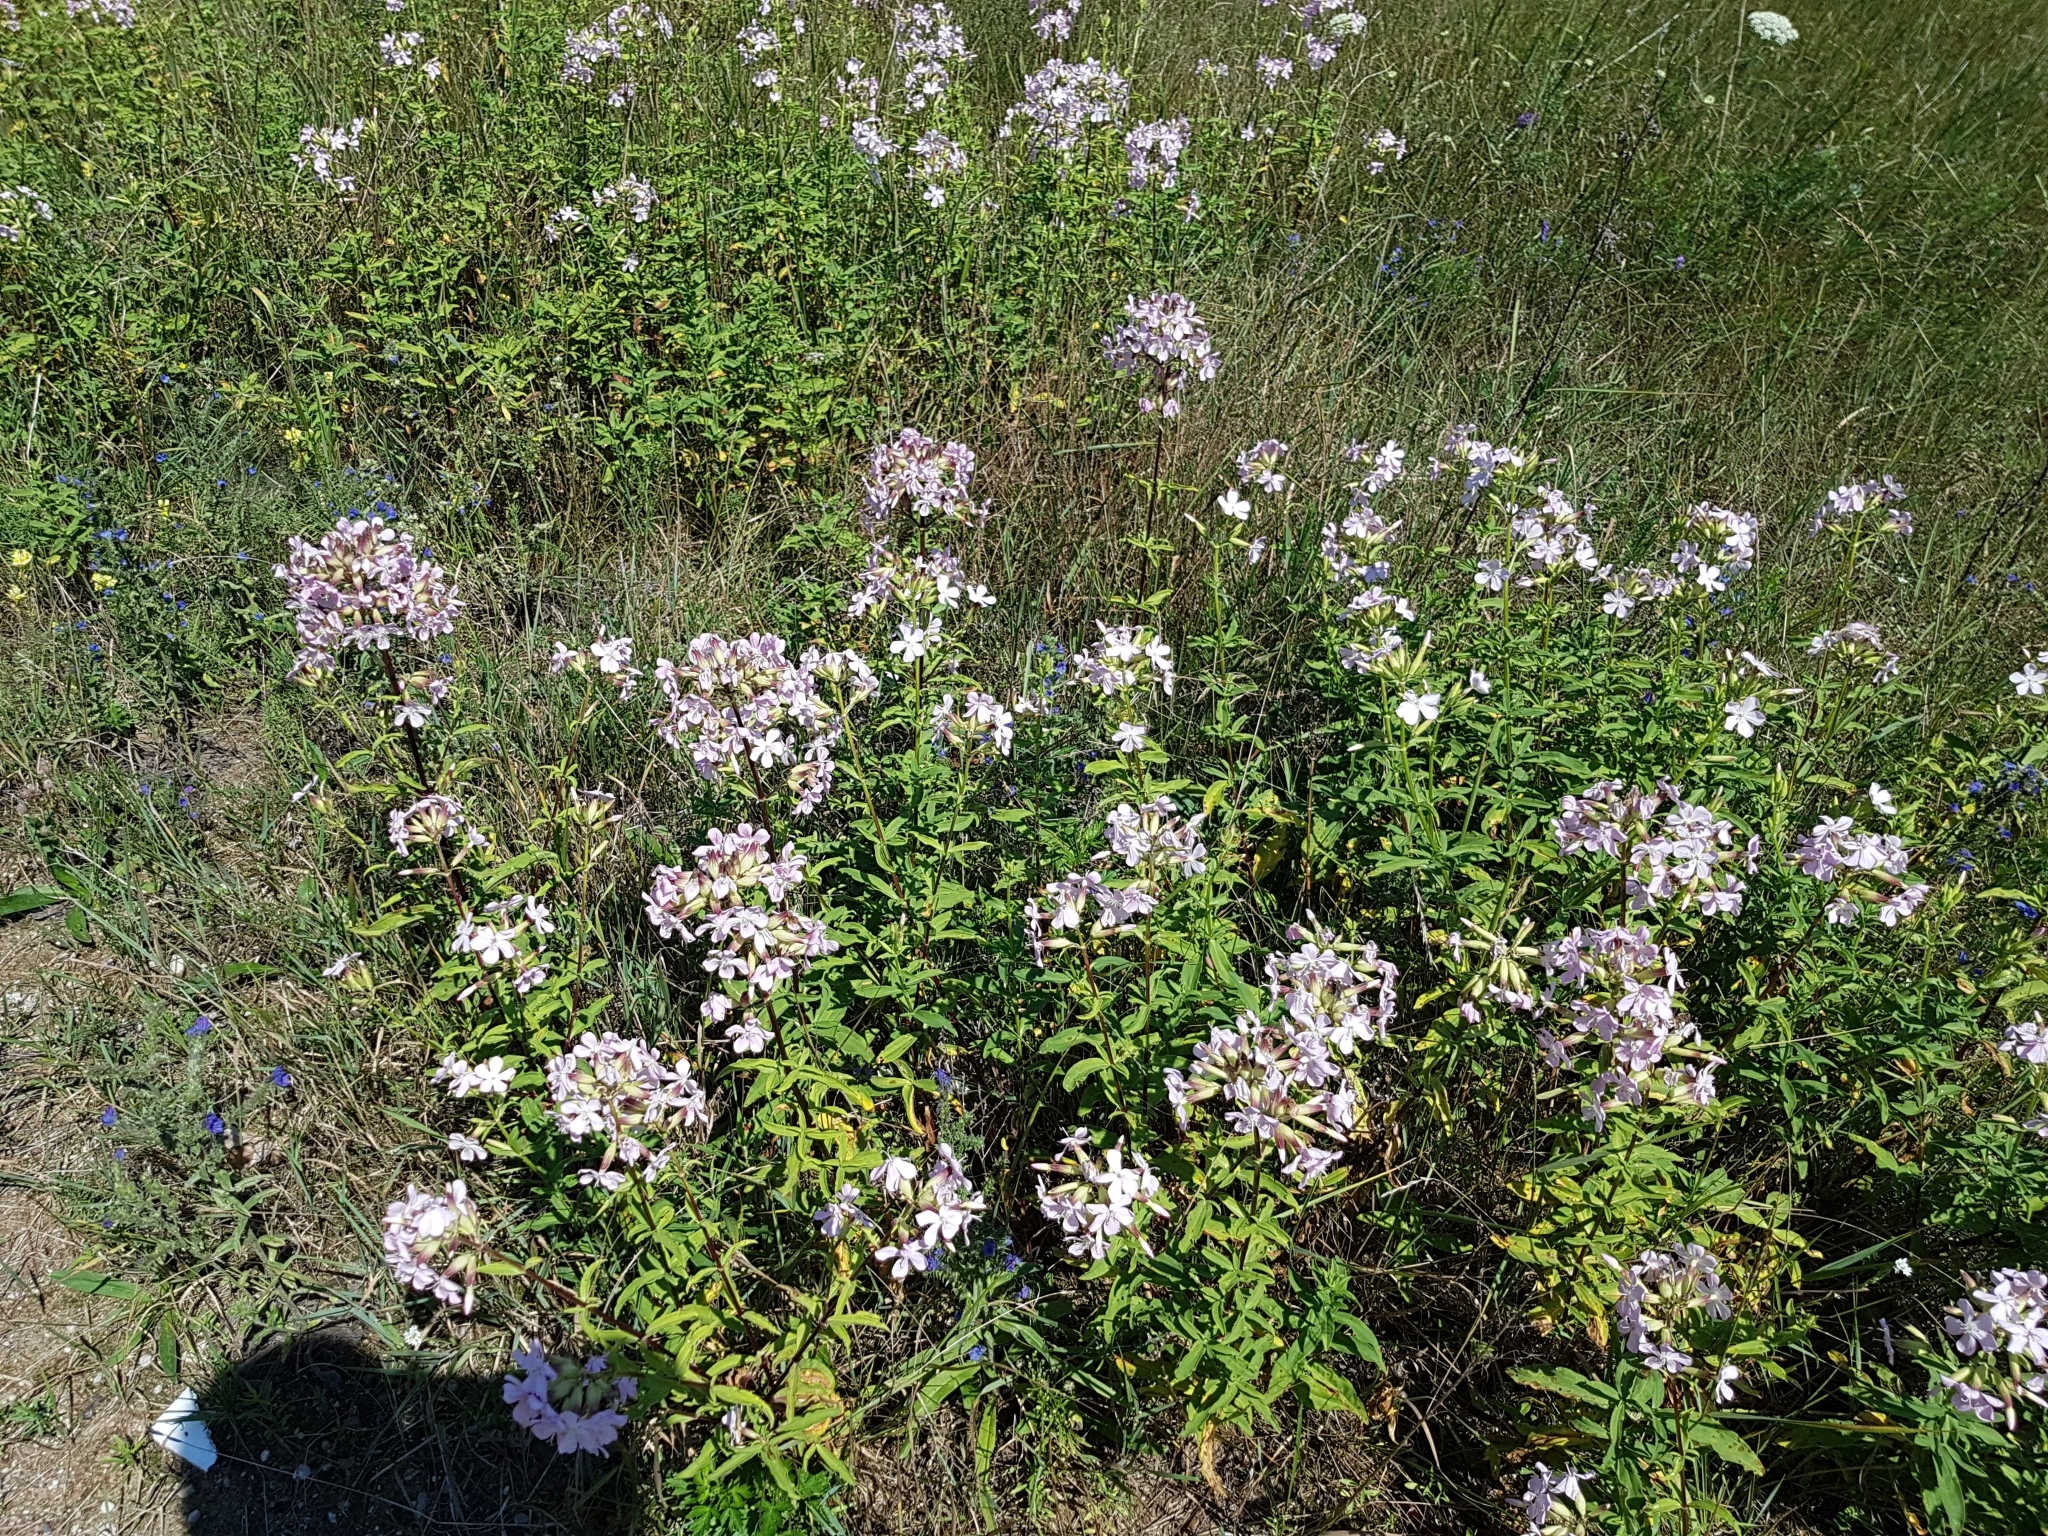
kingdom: Plantae
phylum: Tracheophyta
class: Magnoliopsida
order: Caryophyllales
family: Caryophyllaceae
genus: Saponaria
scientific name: Saponaria officinalis
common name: Soapwort
